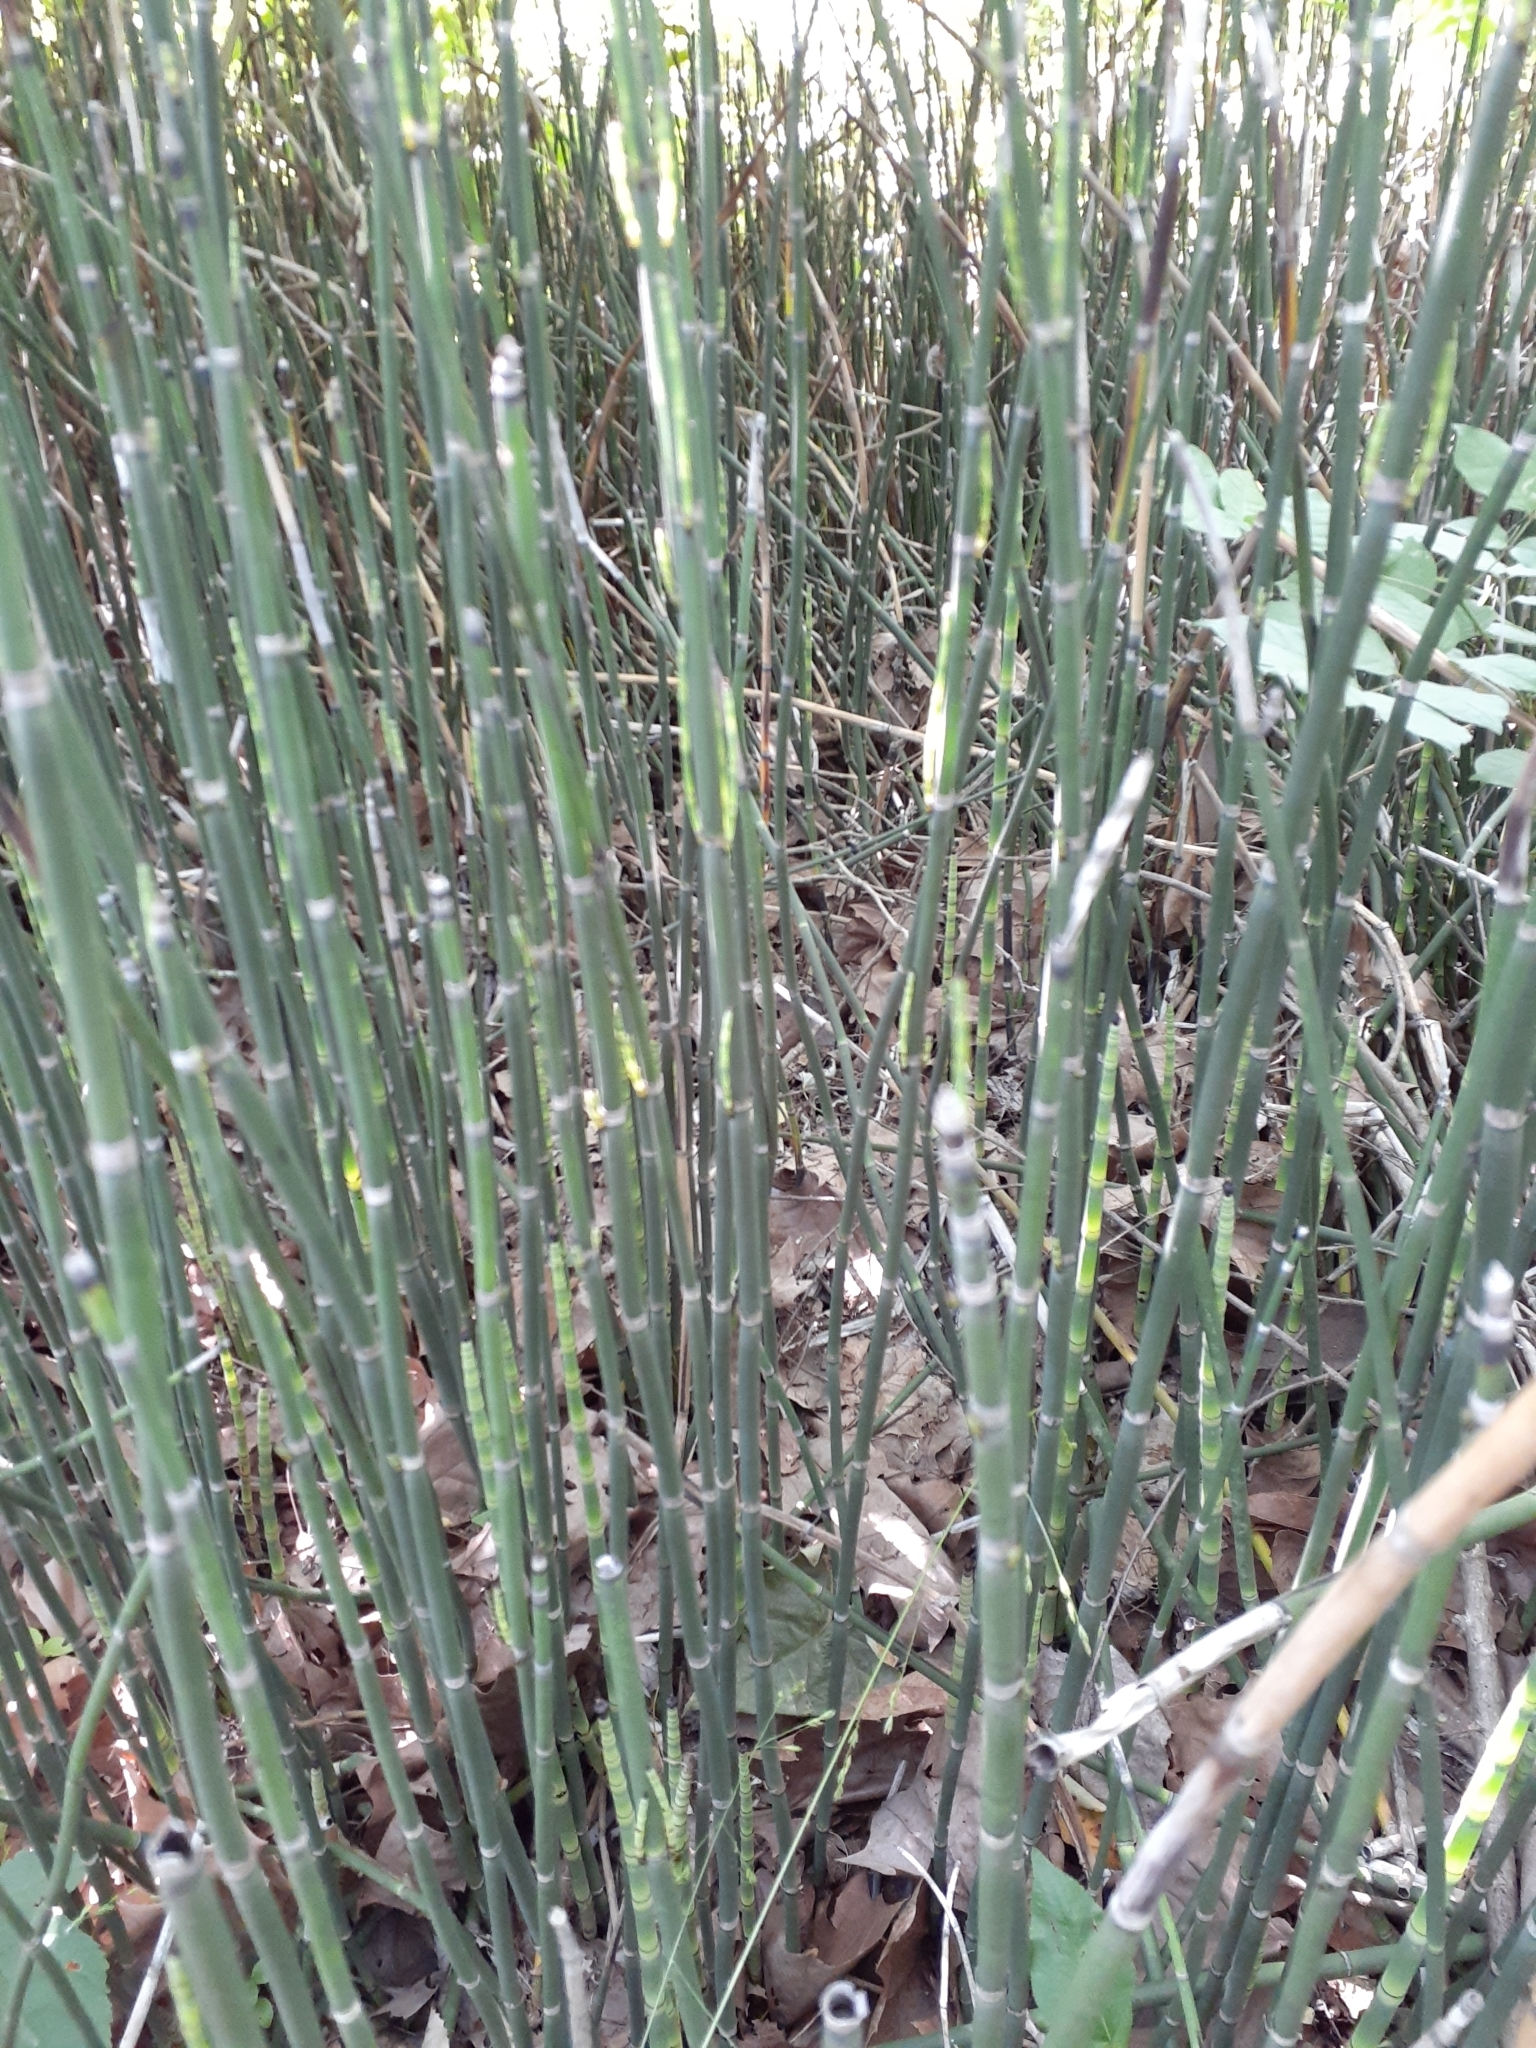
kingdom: Plantae
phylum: Tracheophyta
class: Polypodiopsida
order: Equisetales
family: Equisetaceae
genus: Equisetum
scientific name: Equisetum hyemale
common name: Rough horsetail
